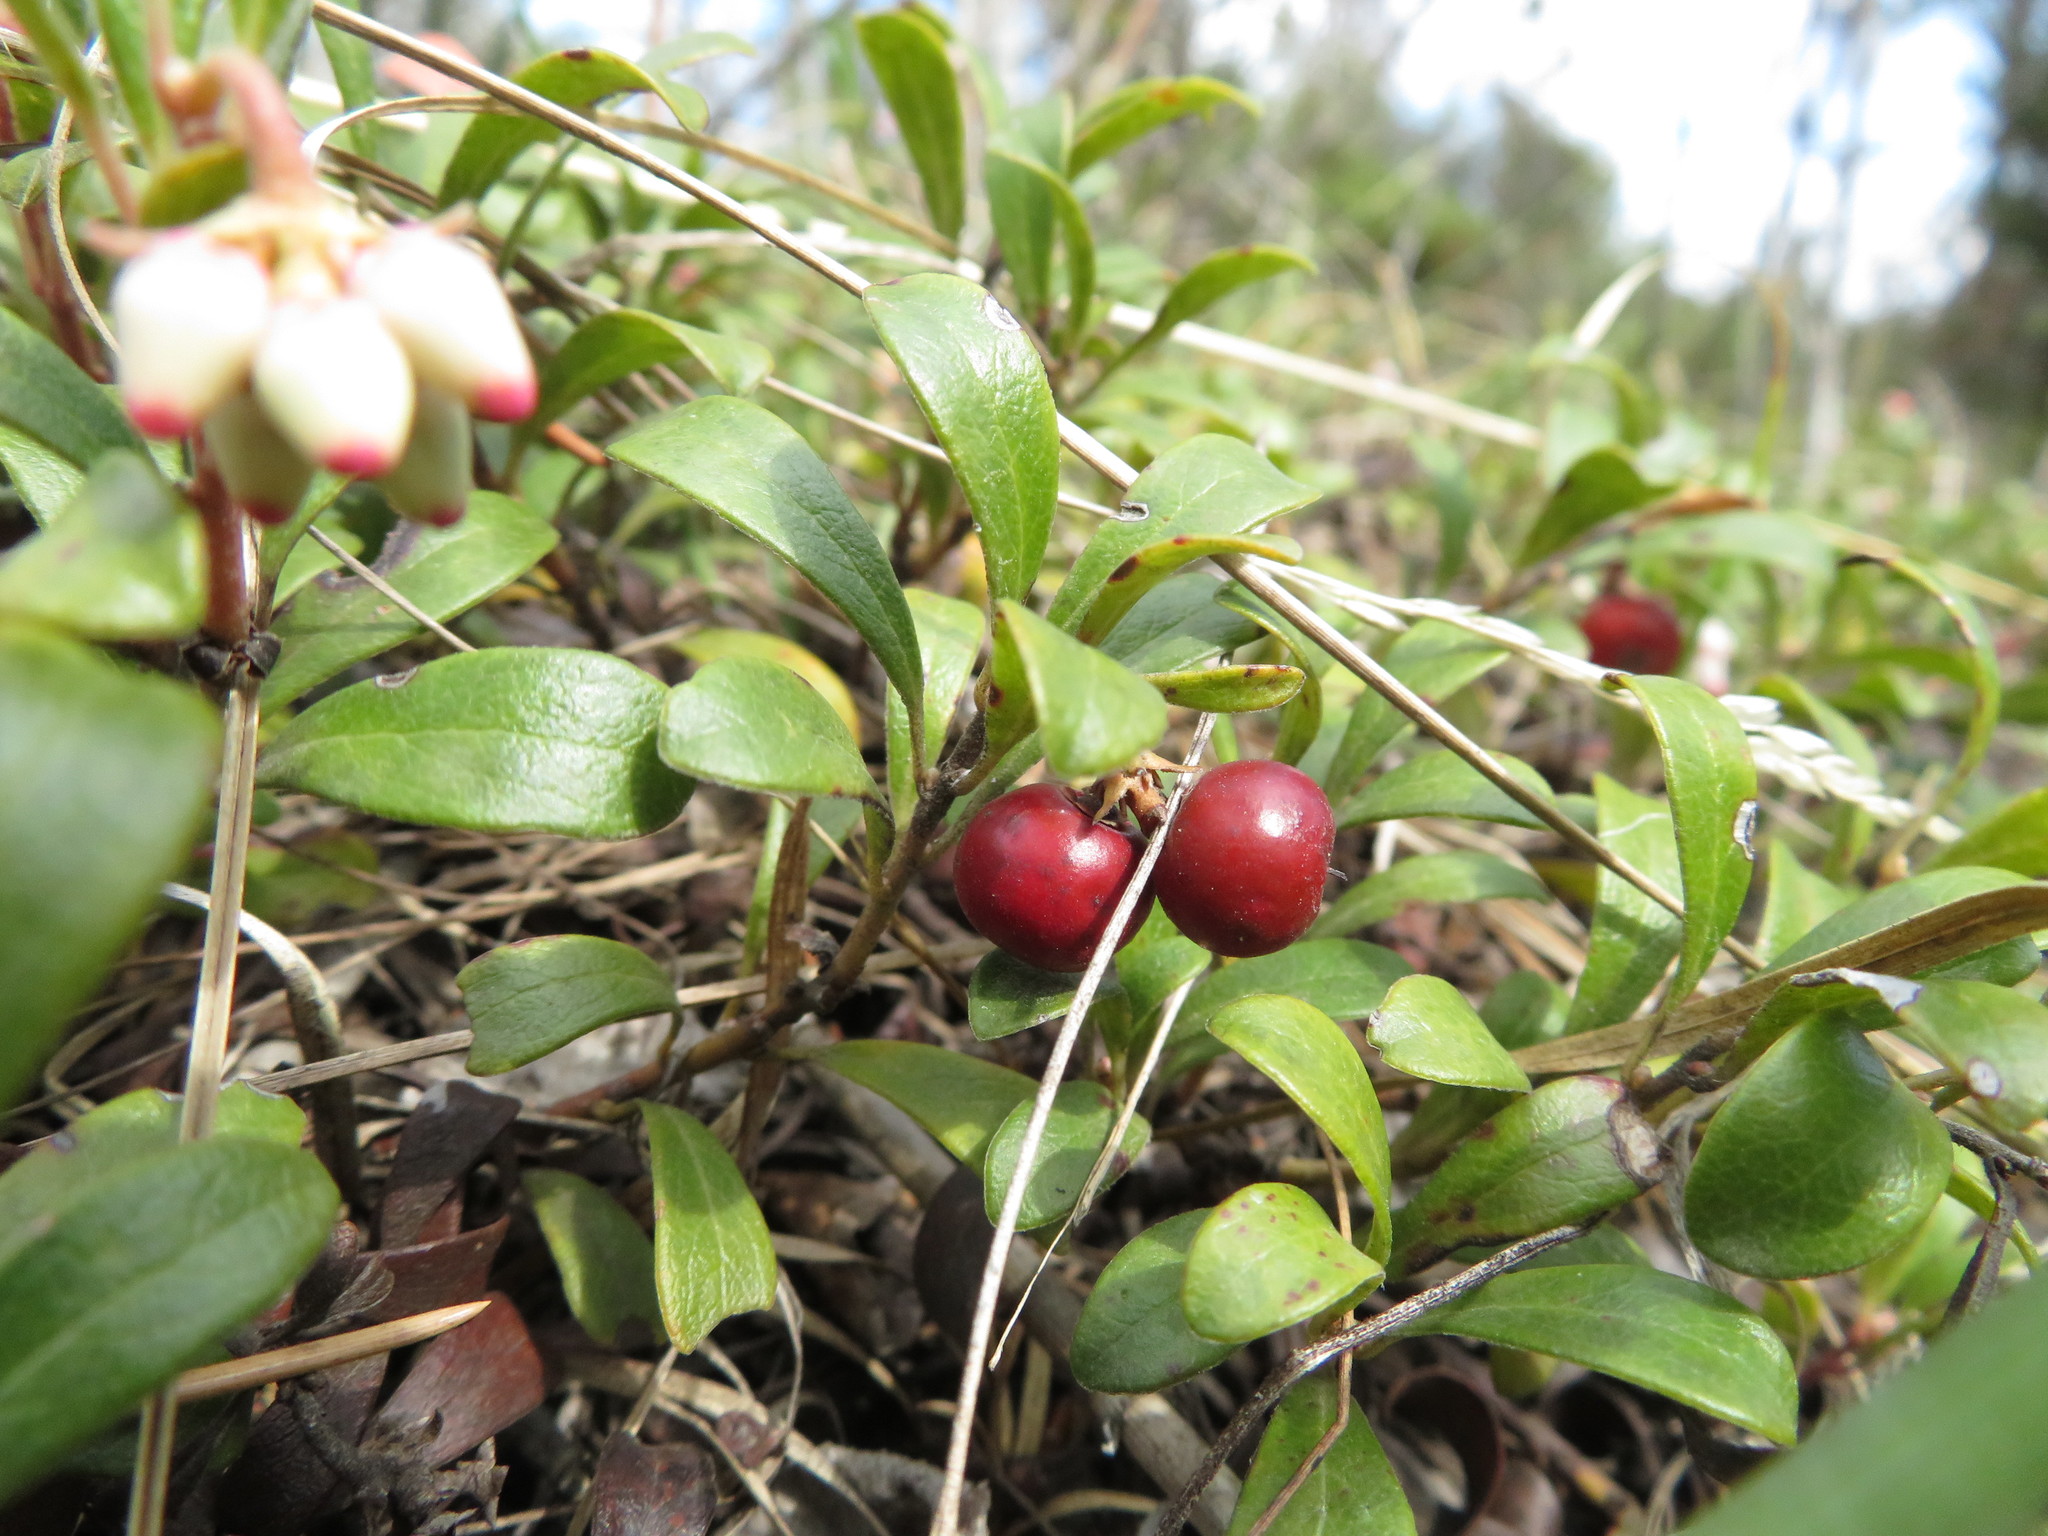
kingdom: Plantae
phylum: Tracheophyta
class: Magnoliopsida
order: Ericales
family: Ericaceae
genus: Arctostaphylos
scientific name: Arctostaphylos uva-ursi
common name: Bearberry
